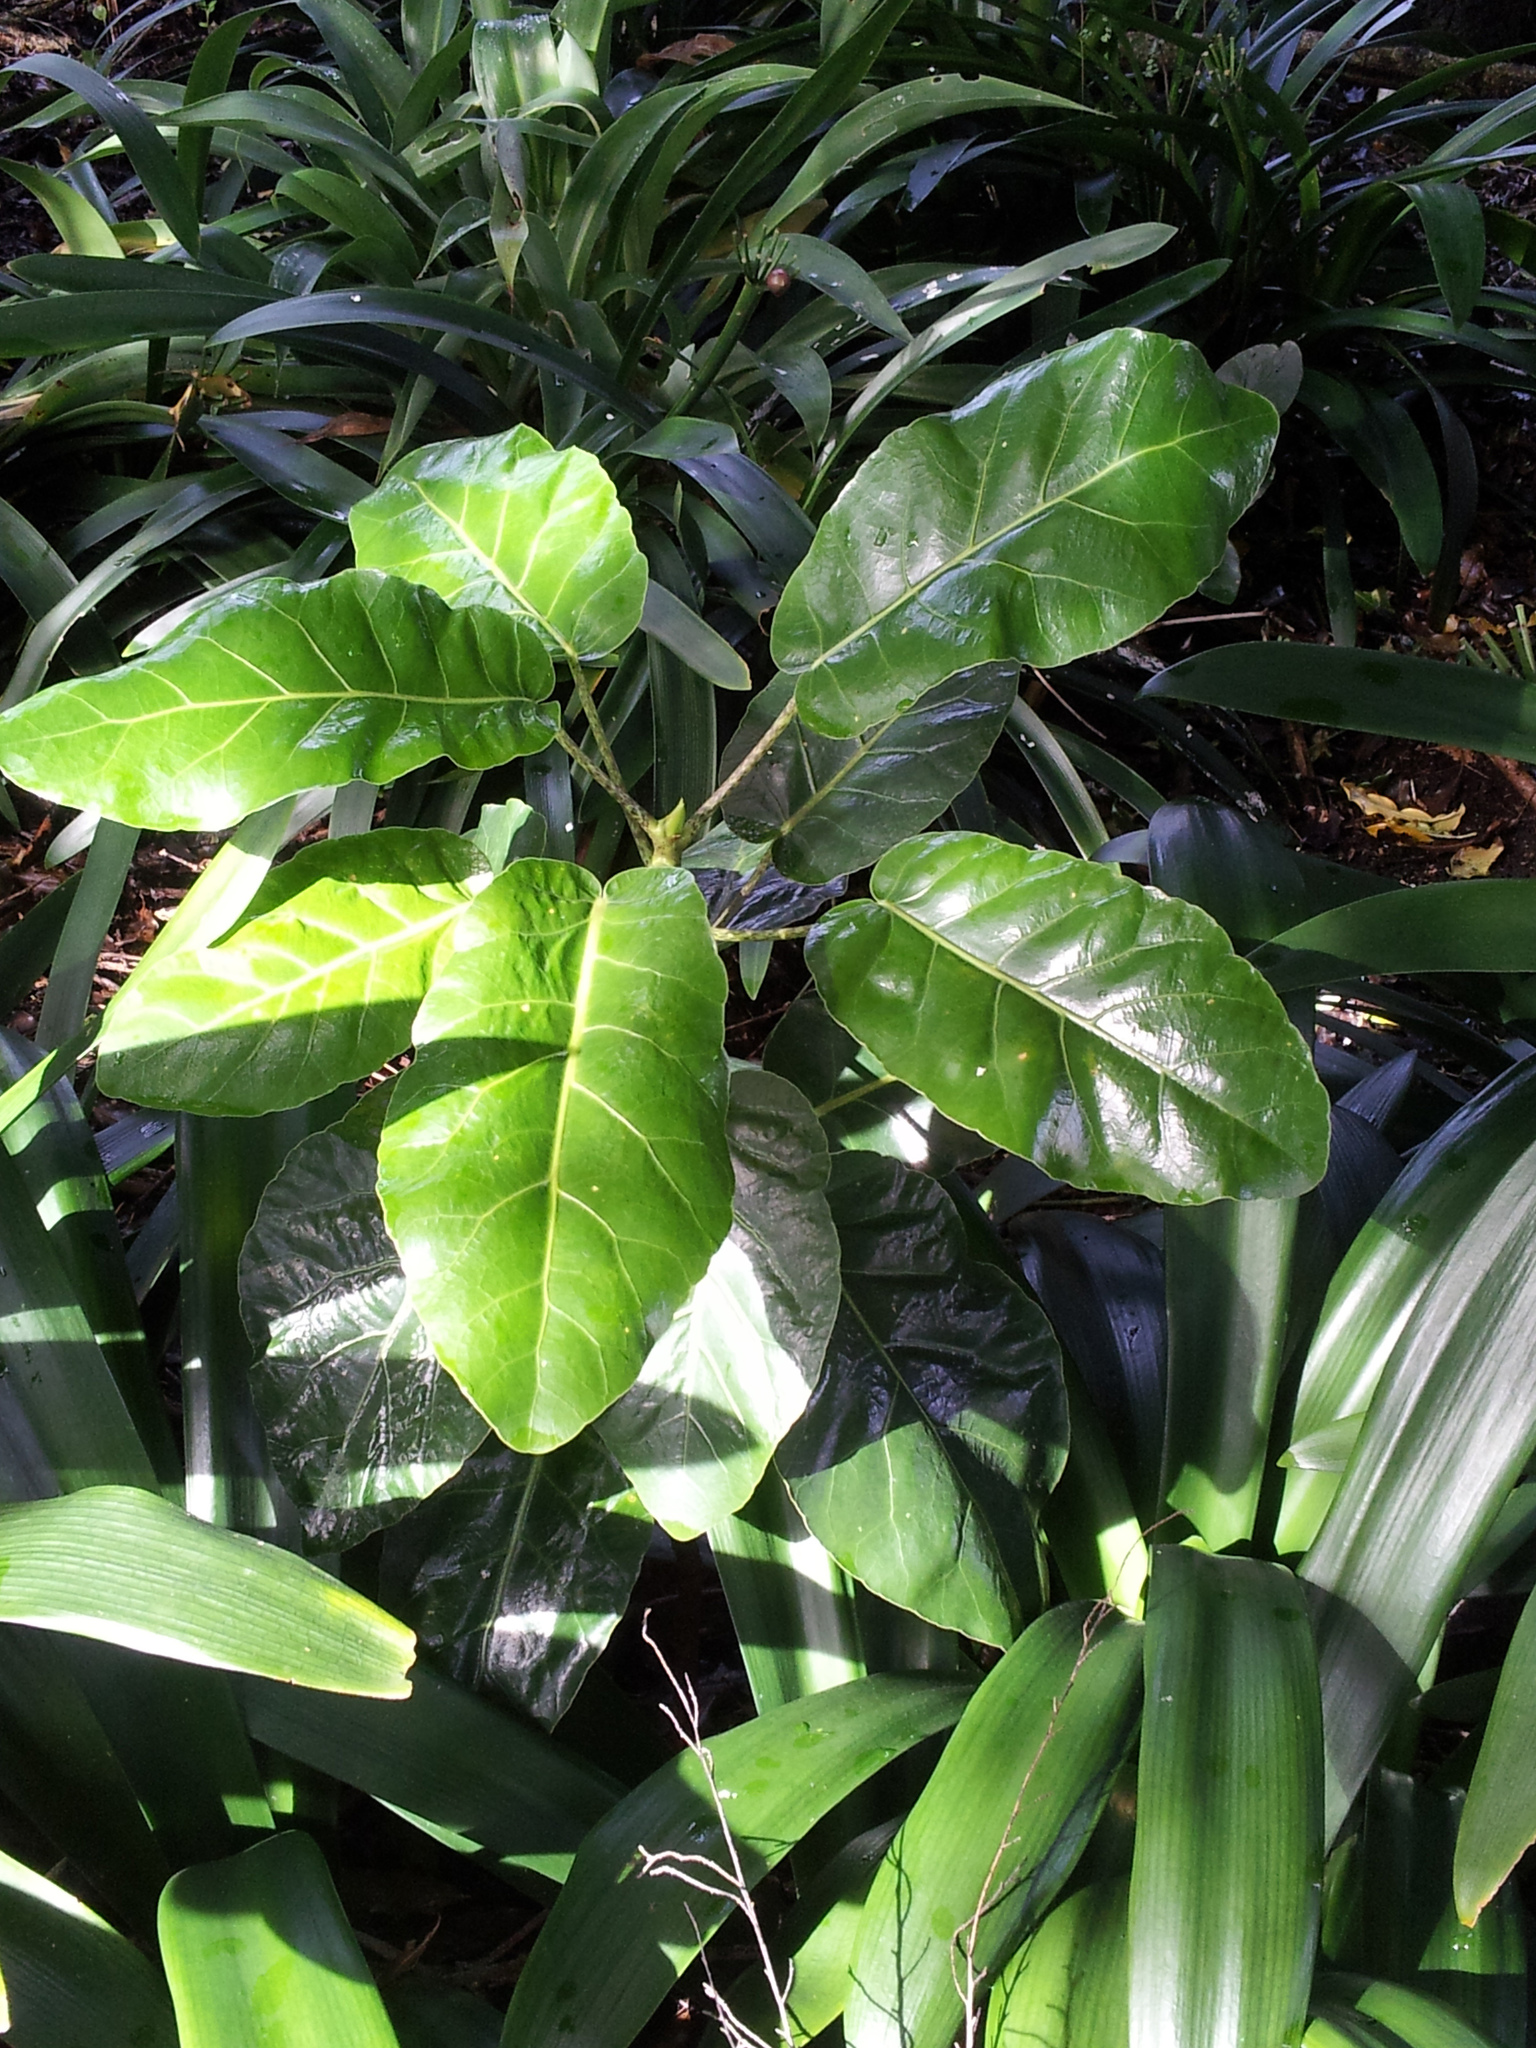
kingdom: Plantae
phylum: Tracheophyta
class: Magnoliopsida
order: Apiales
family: Araliaceae
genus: Meryta
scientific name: Meryta sinclairii
